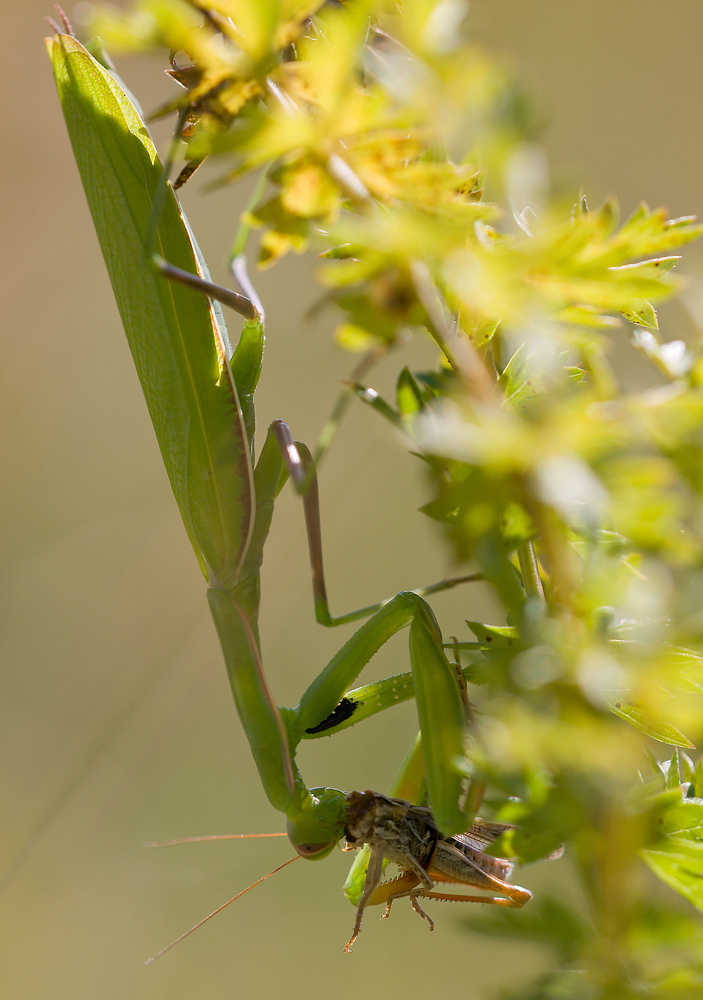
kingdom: Animalia
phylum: Arthropoda
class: Insecta
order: Mantodea
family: Mantidae
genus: Mantis
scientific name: Mantis religiosa
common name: Praying mantis
